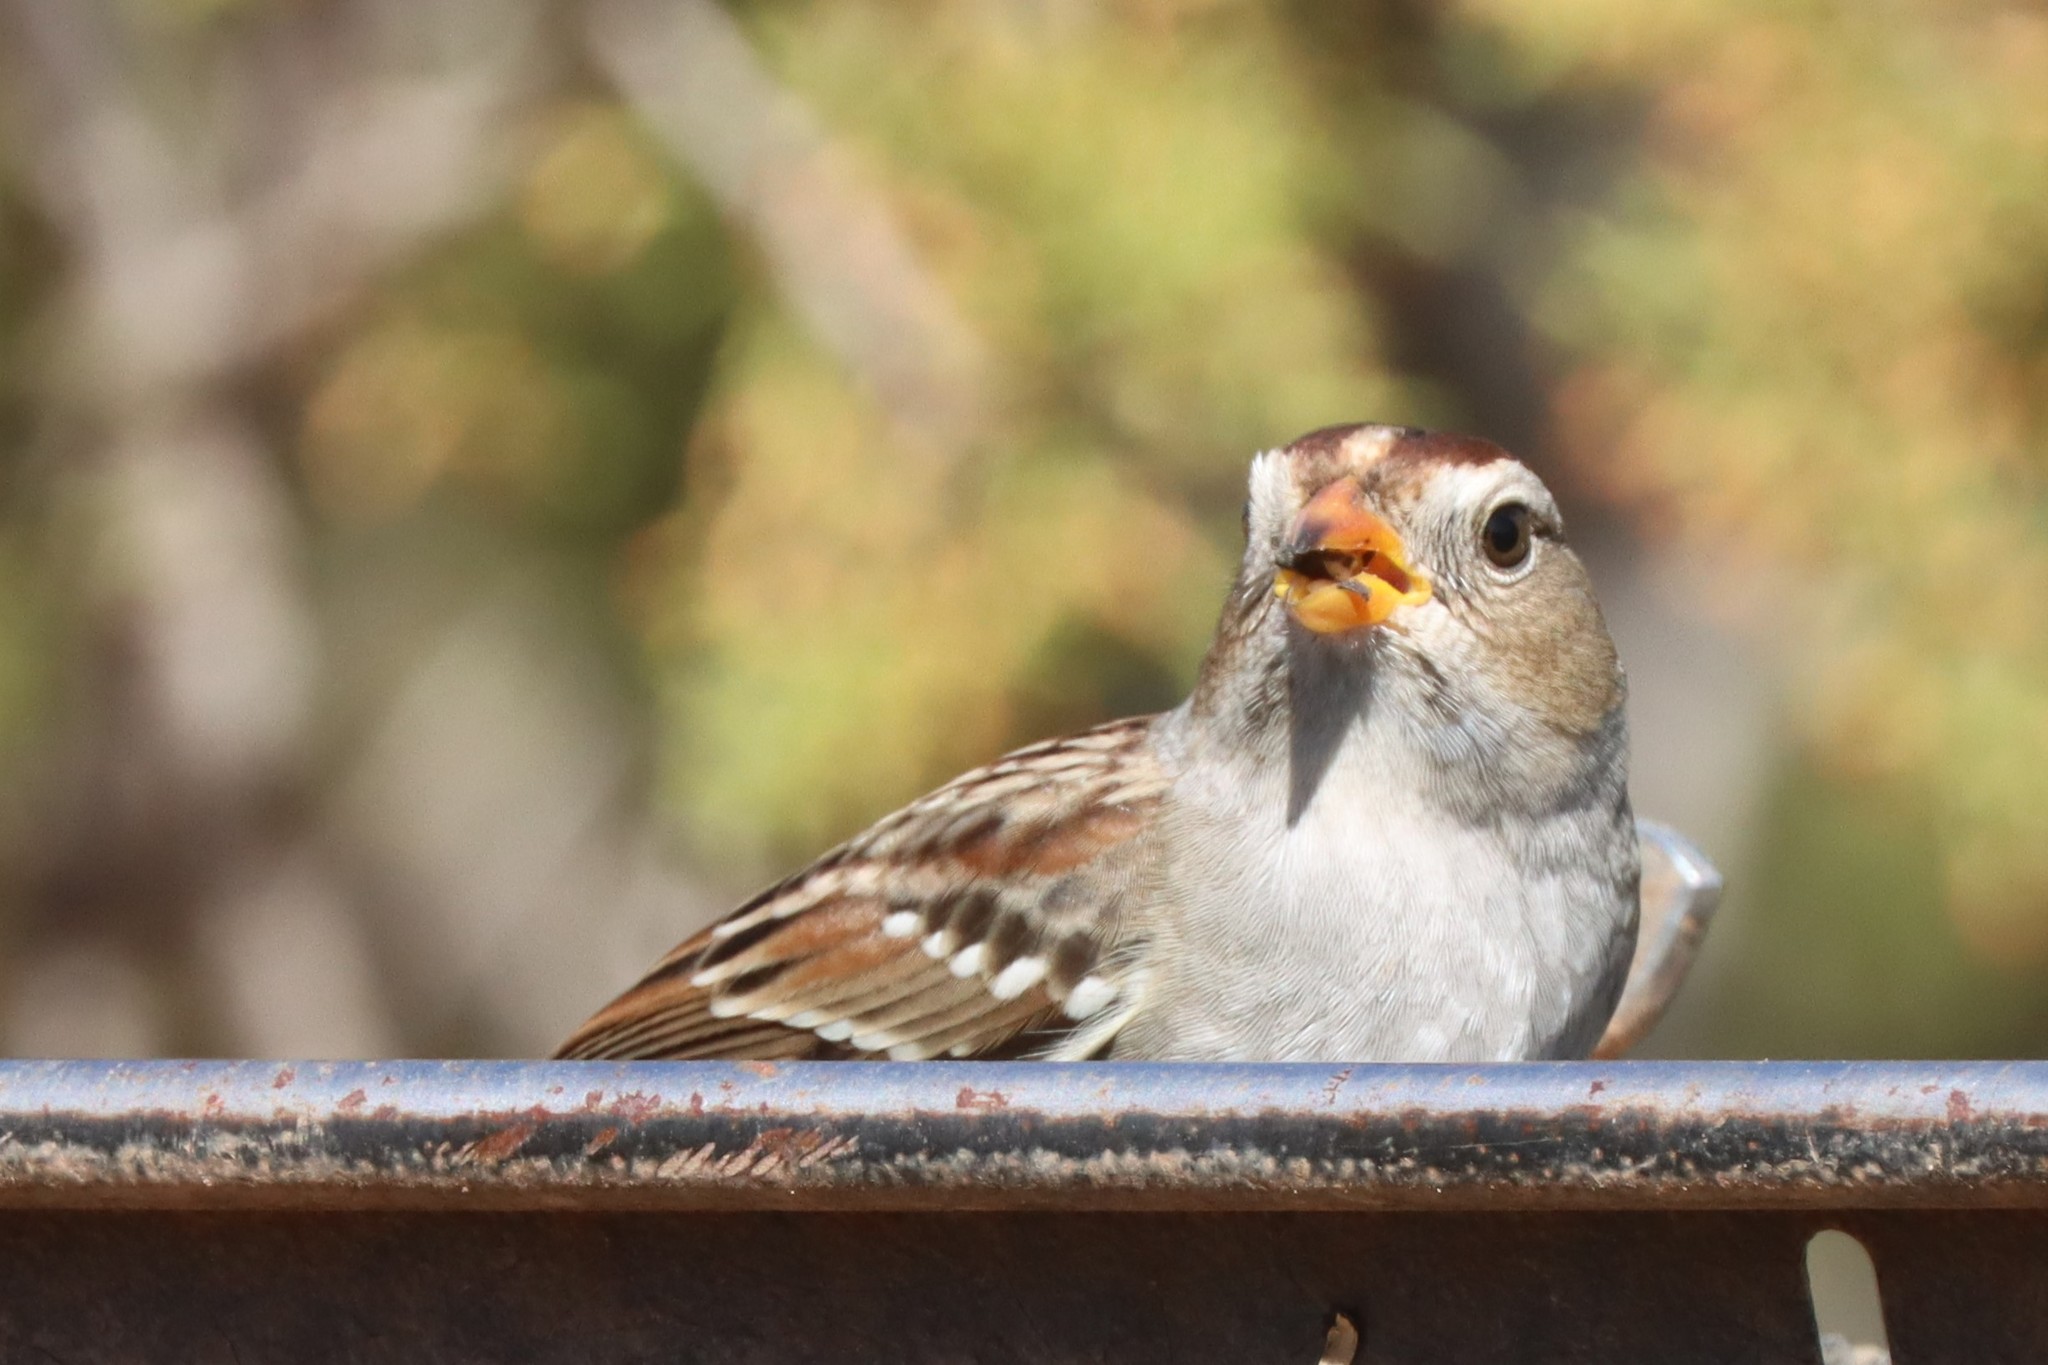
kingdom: Animalia
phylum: Chordata
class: Aves
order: Passeriformes
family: Passerellidae
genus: Zonotrichia
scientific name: Zonotrichia leucophrys
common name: White-crowned sparrow
